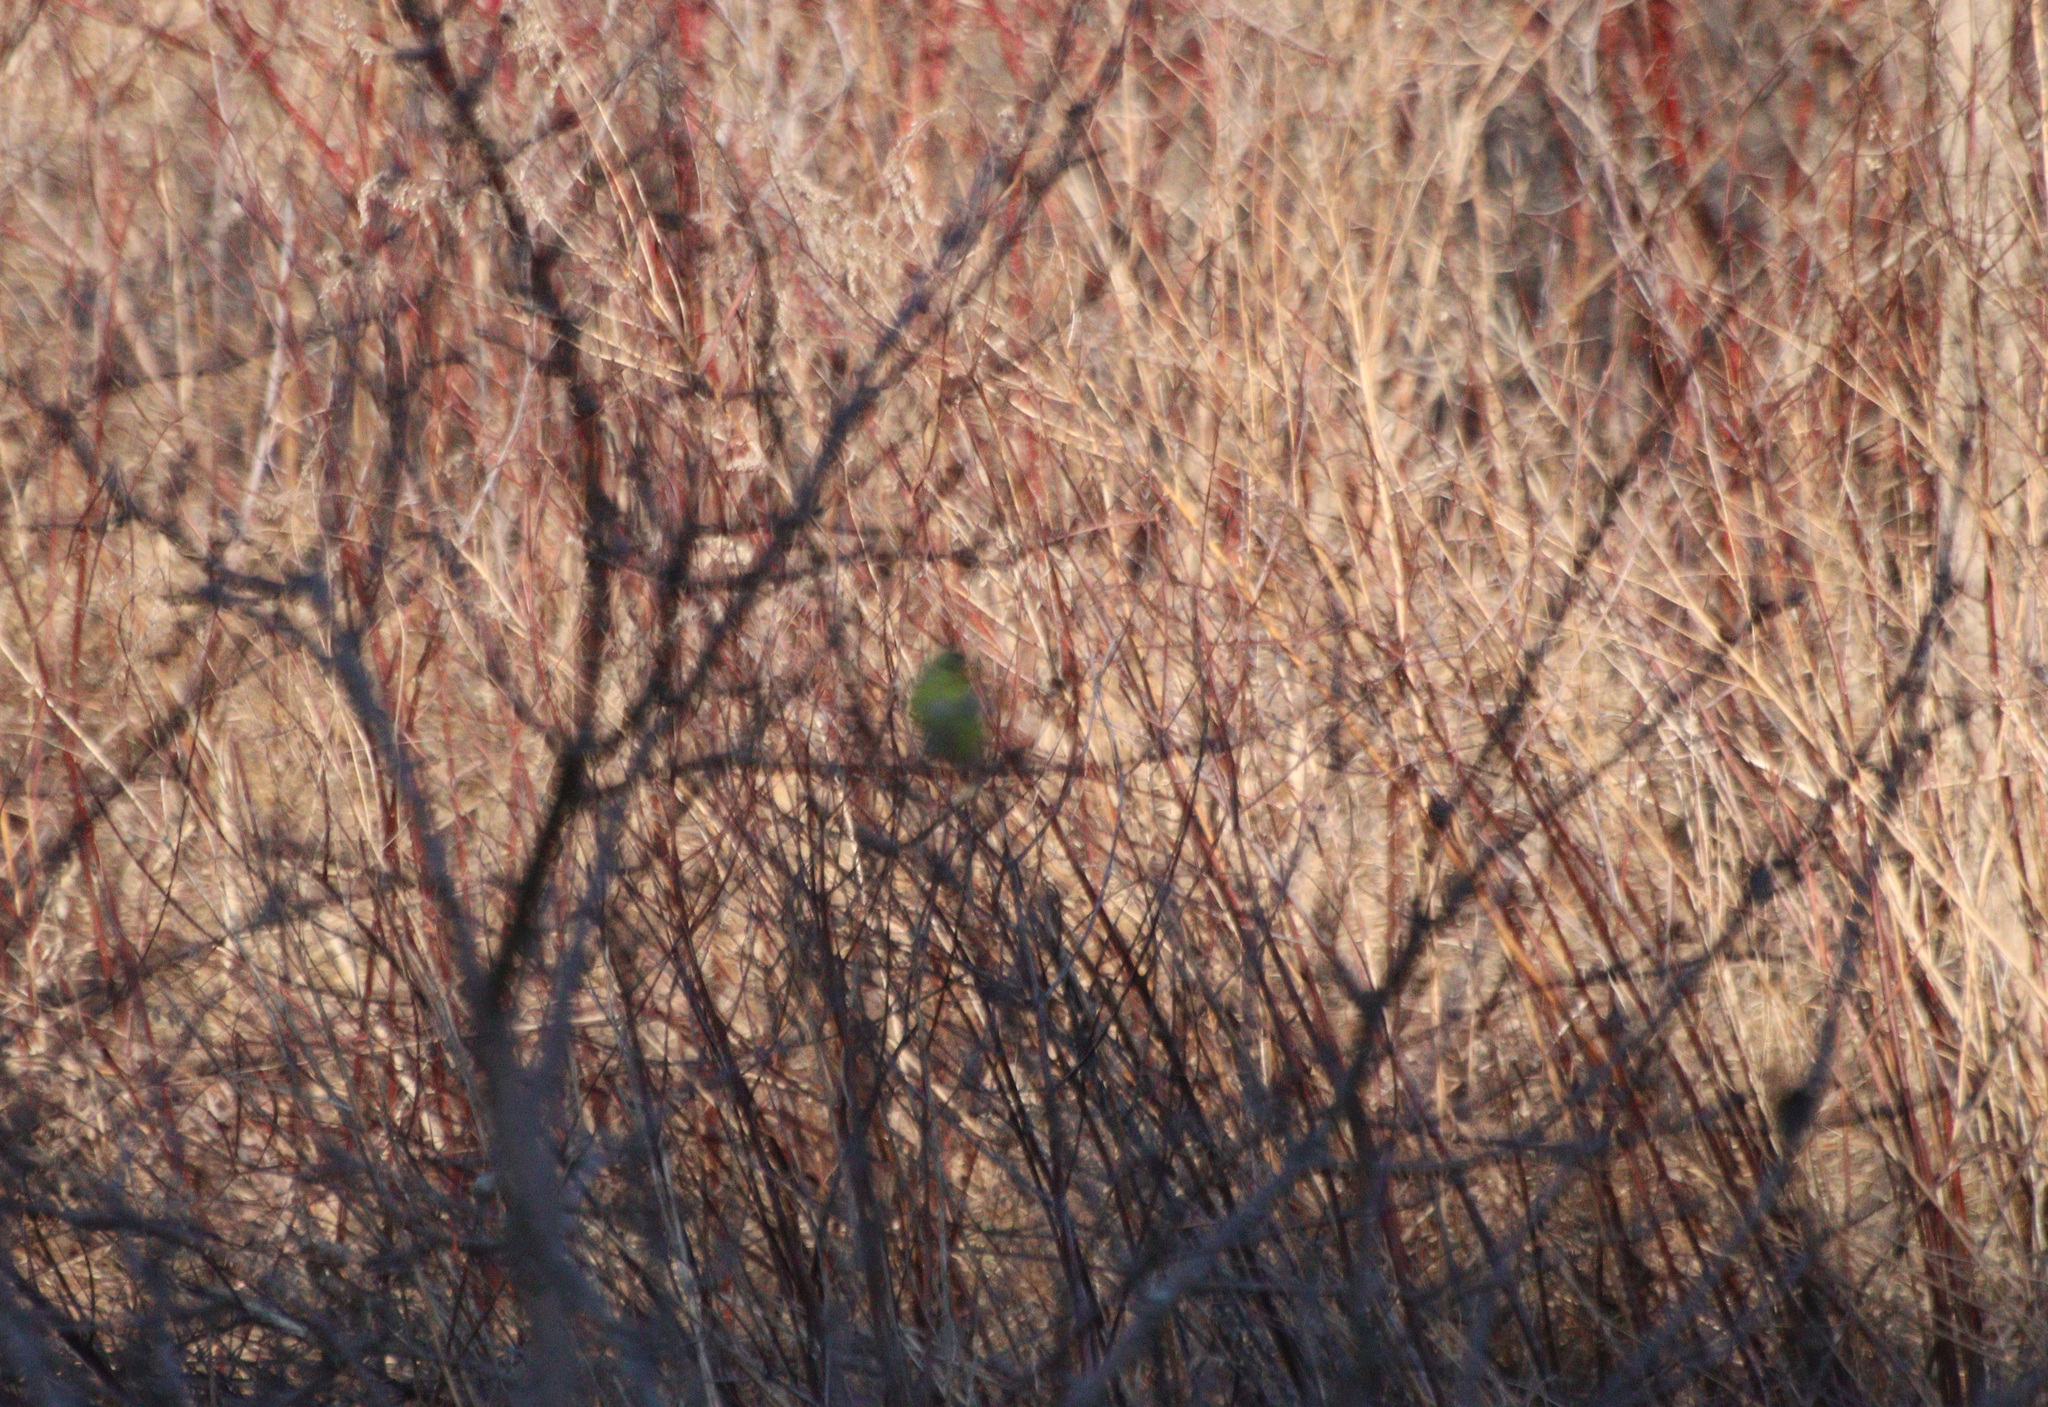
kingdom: Animalia
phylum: Chordata
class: Aves
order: Passeriformes
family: Fringillidae
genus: Spinus
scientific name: Spinus tristis
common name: American goldfinch
